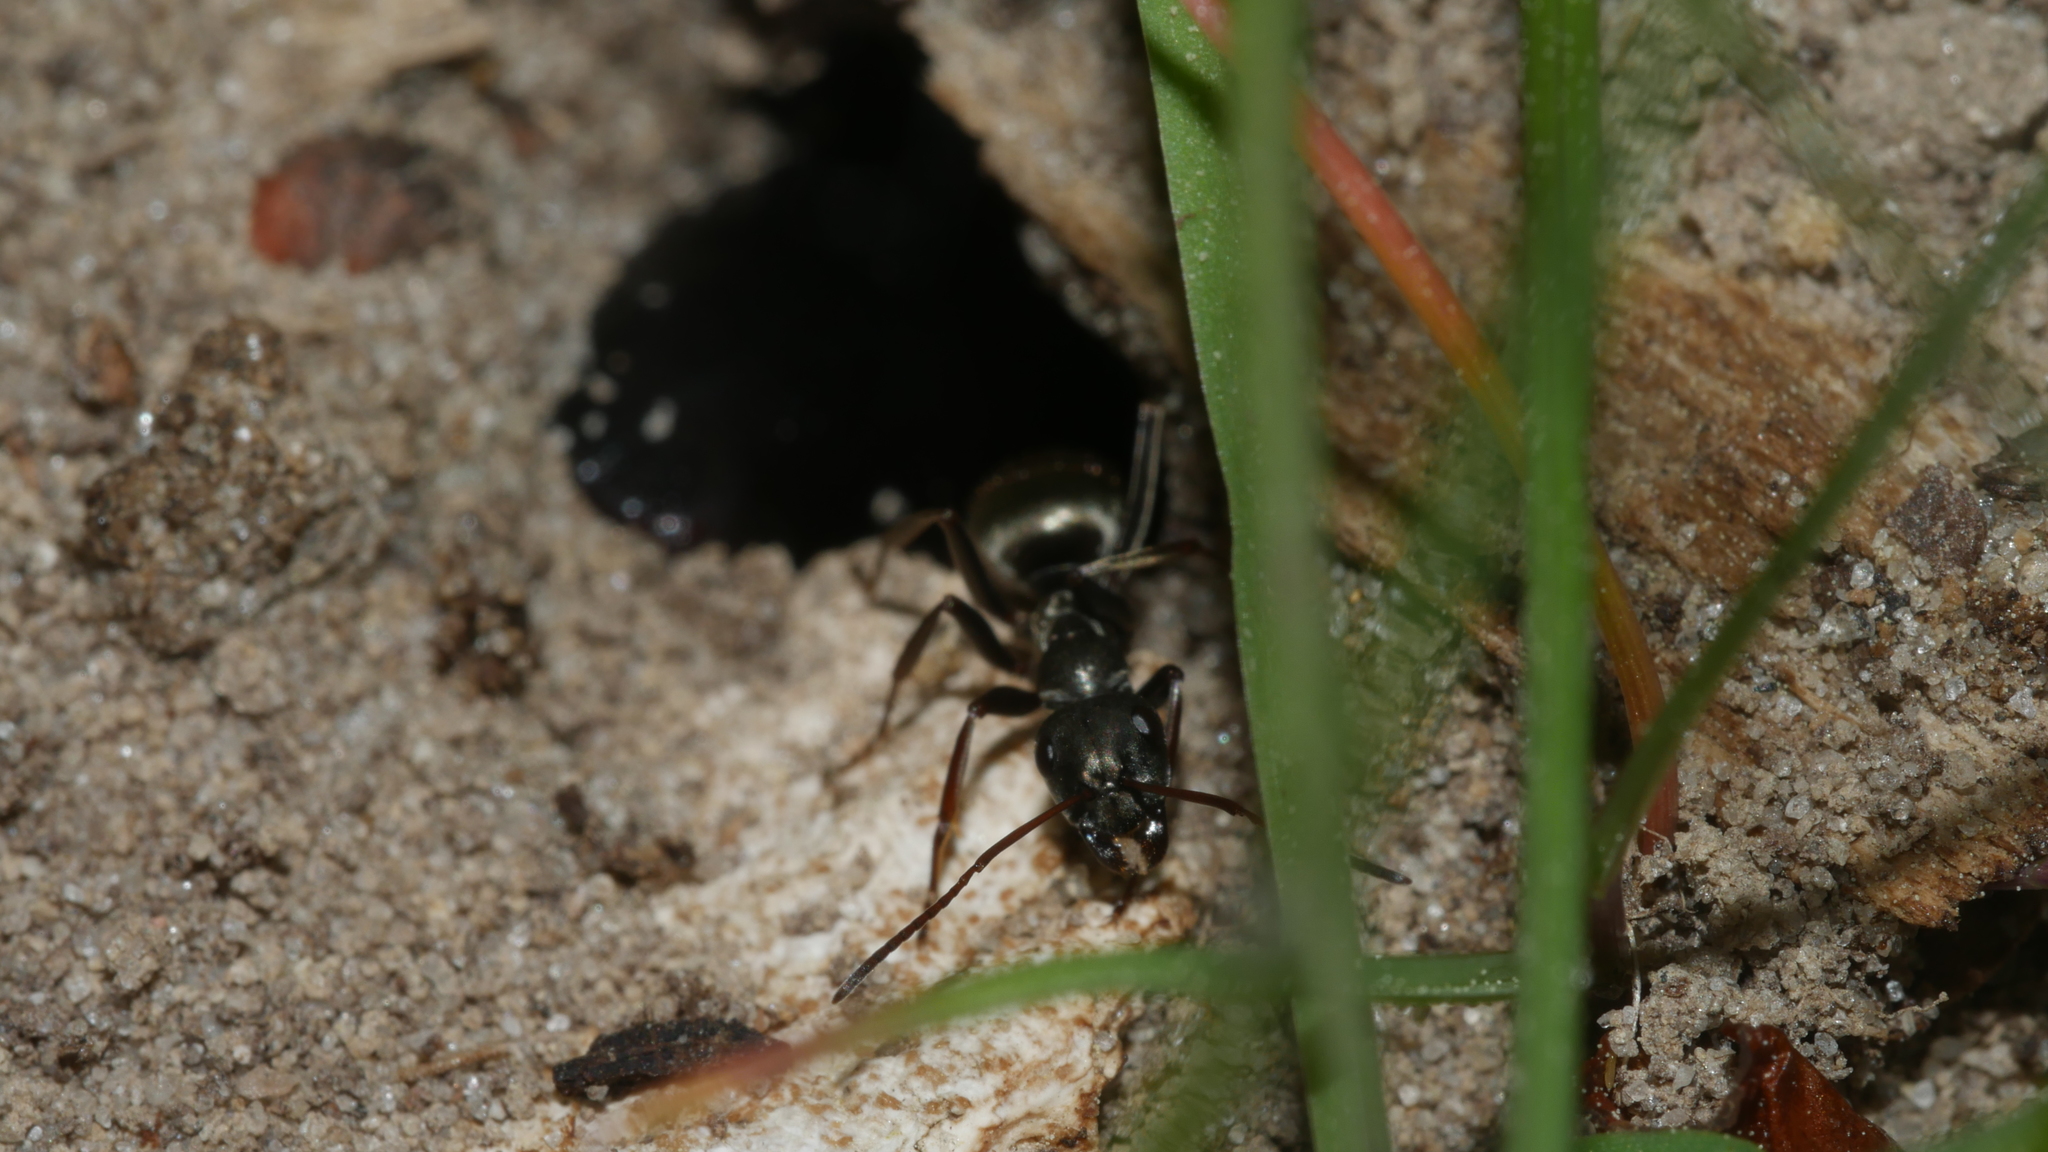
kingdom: Animalia
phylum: Arthropoda
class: Insecta
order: Hymenoptera
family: Formicidae
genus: Formica
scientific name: Formica subsericea
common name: Silky field ant
